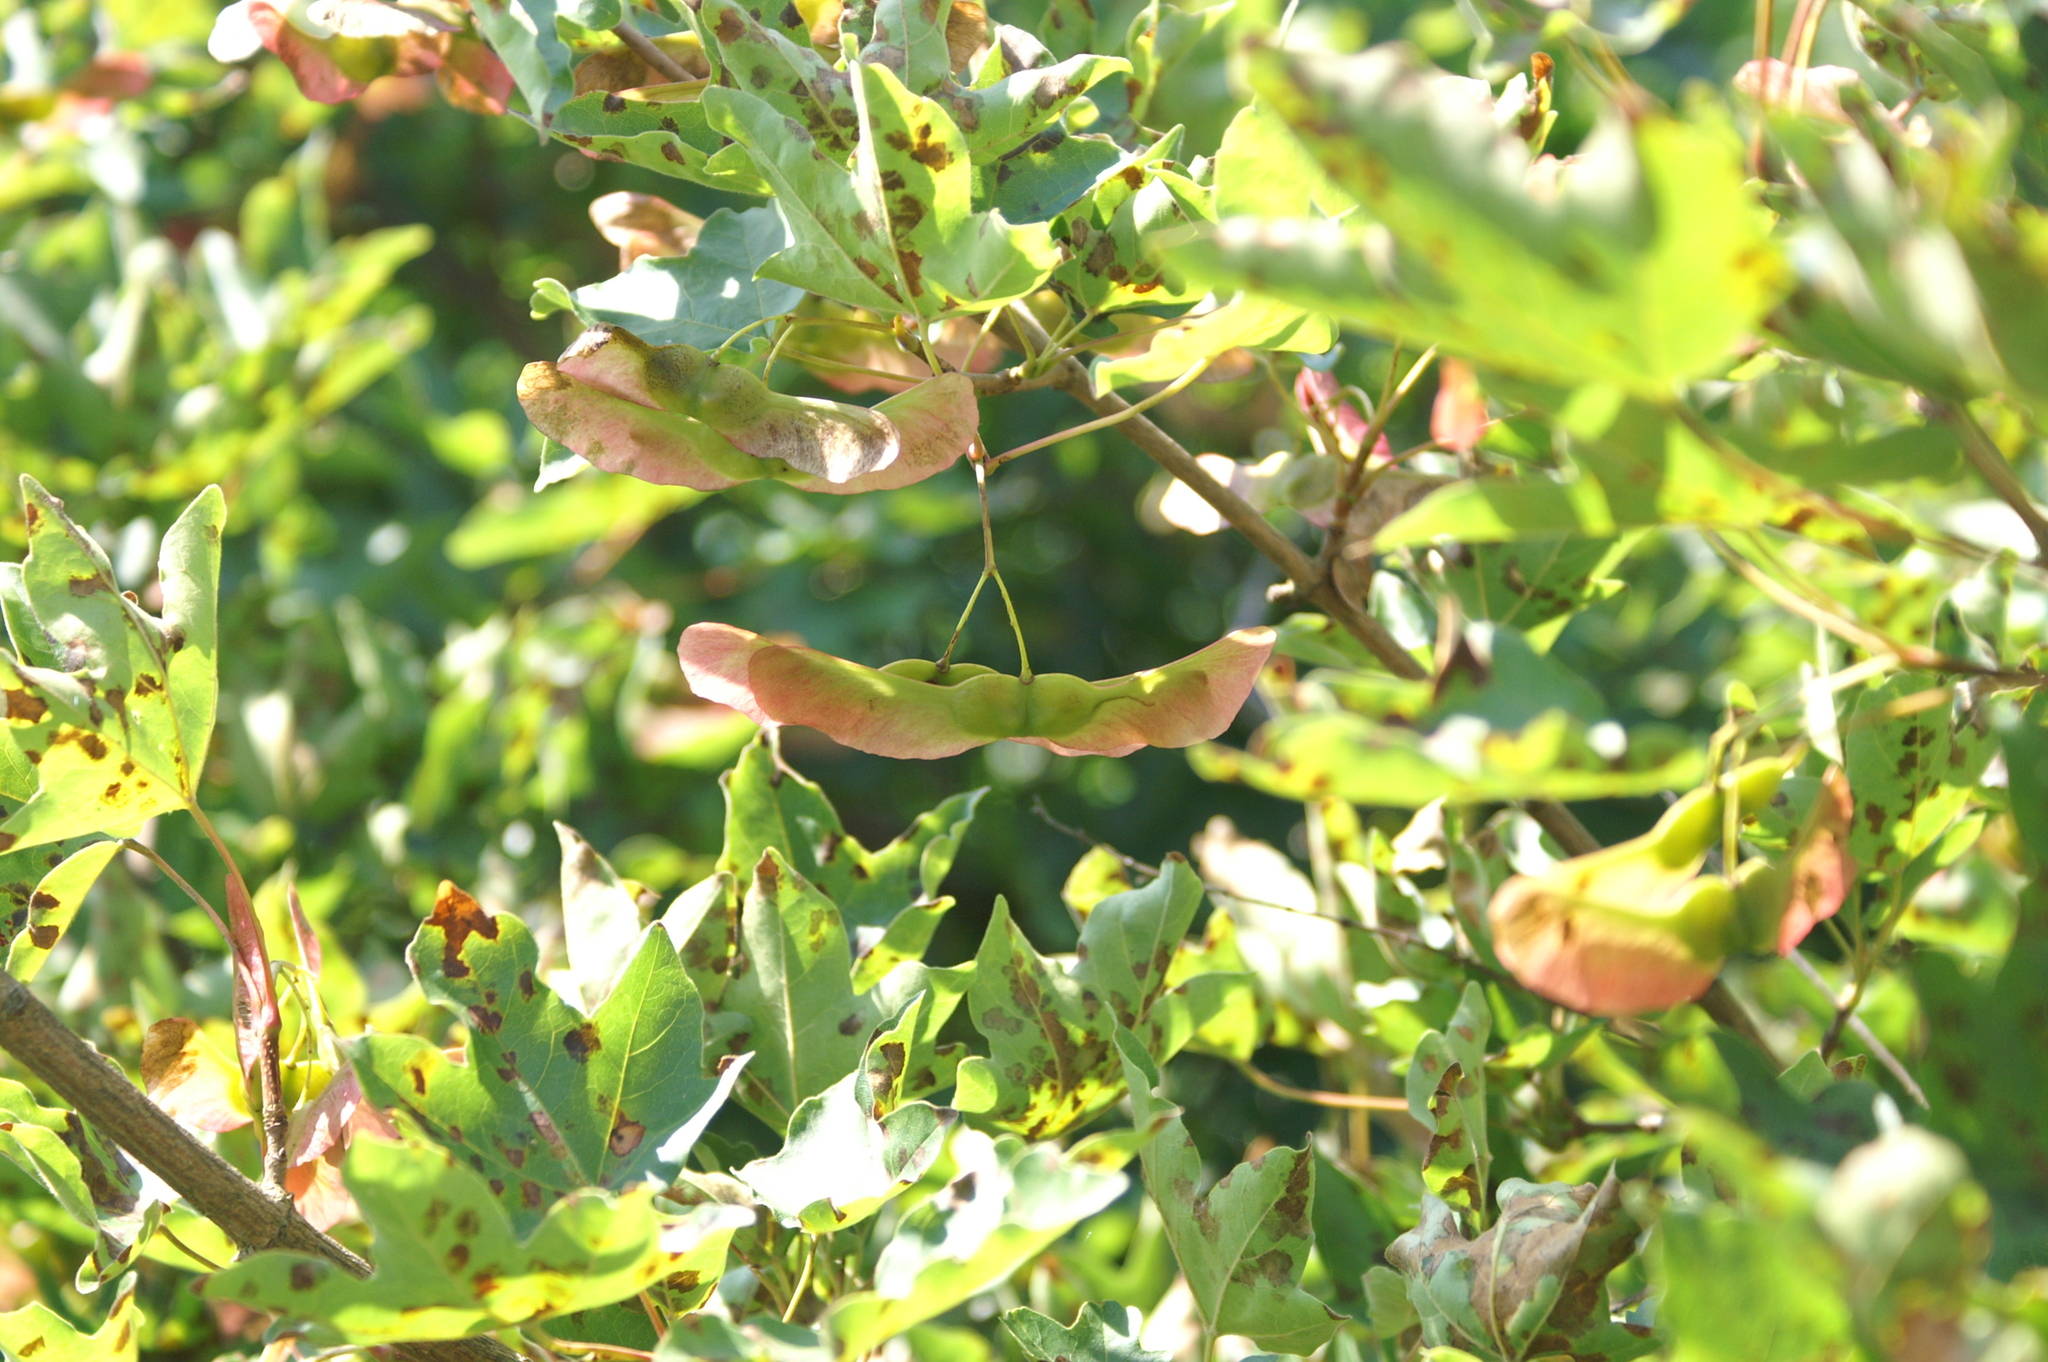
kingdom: Plantae
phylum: Tracheophyta
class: Magnoliopsida
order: Sapindales
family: Sapindaceae
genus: Acer
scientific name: Acer campestre
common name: Field maple
